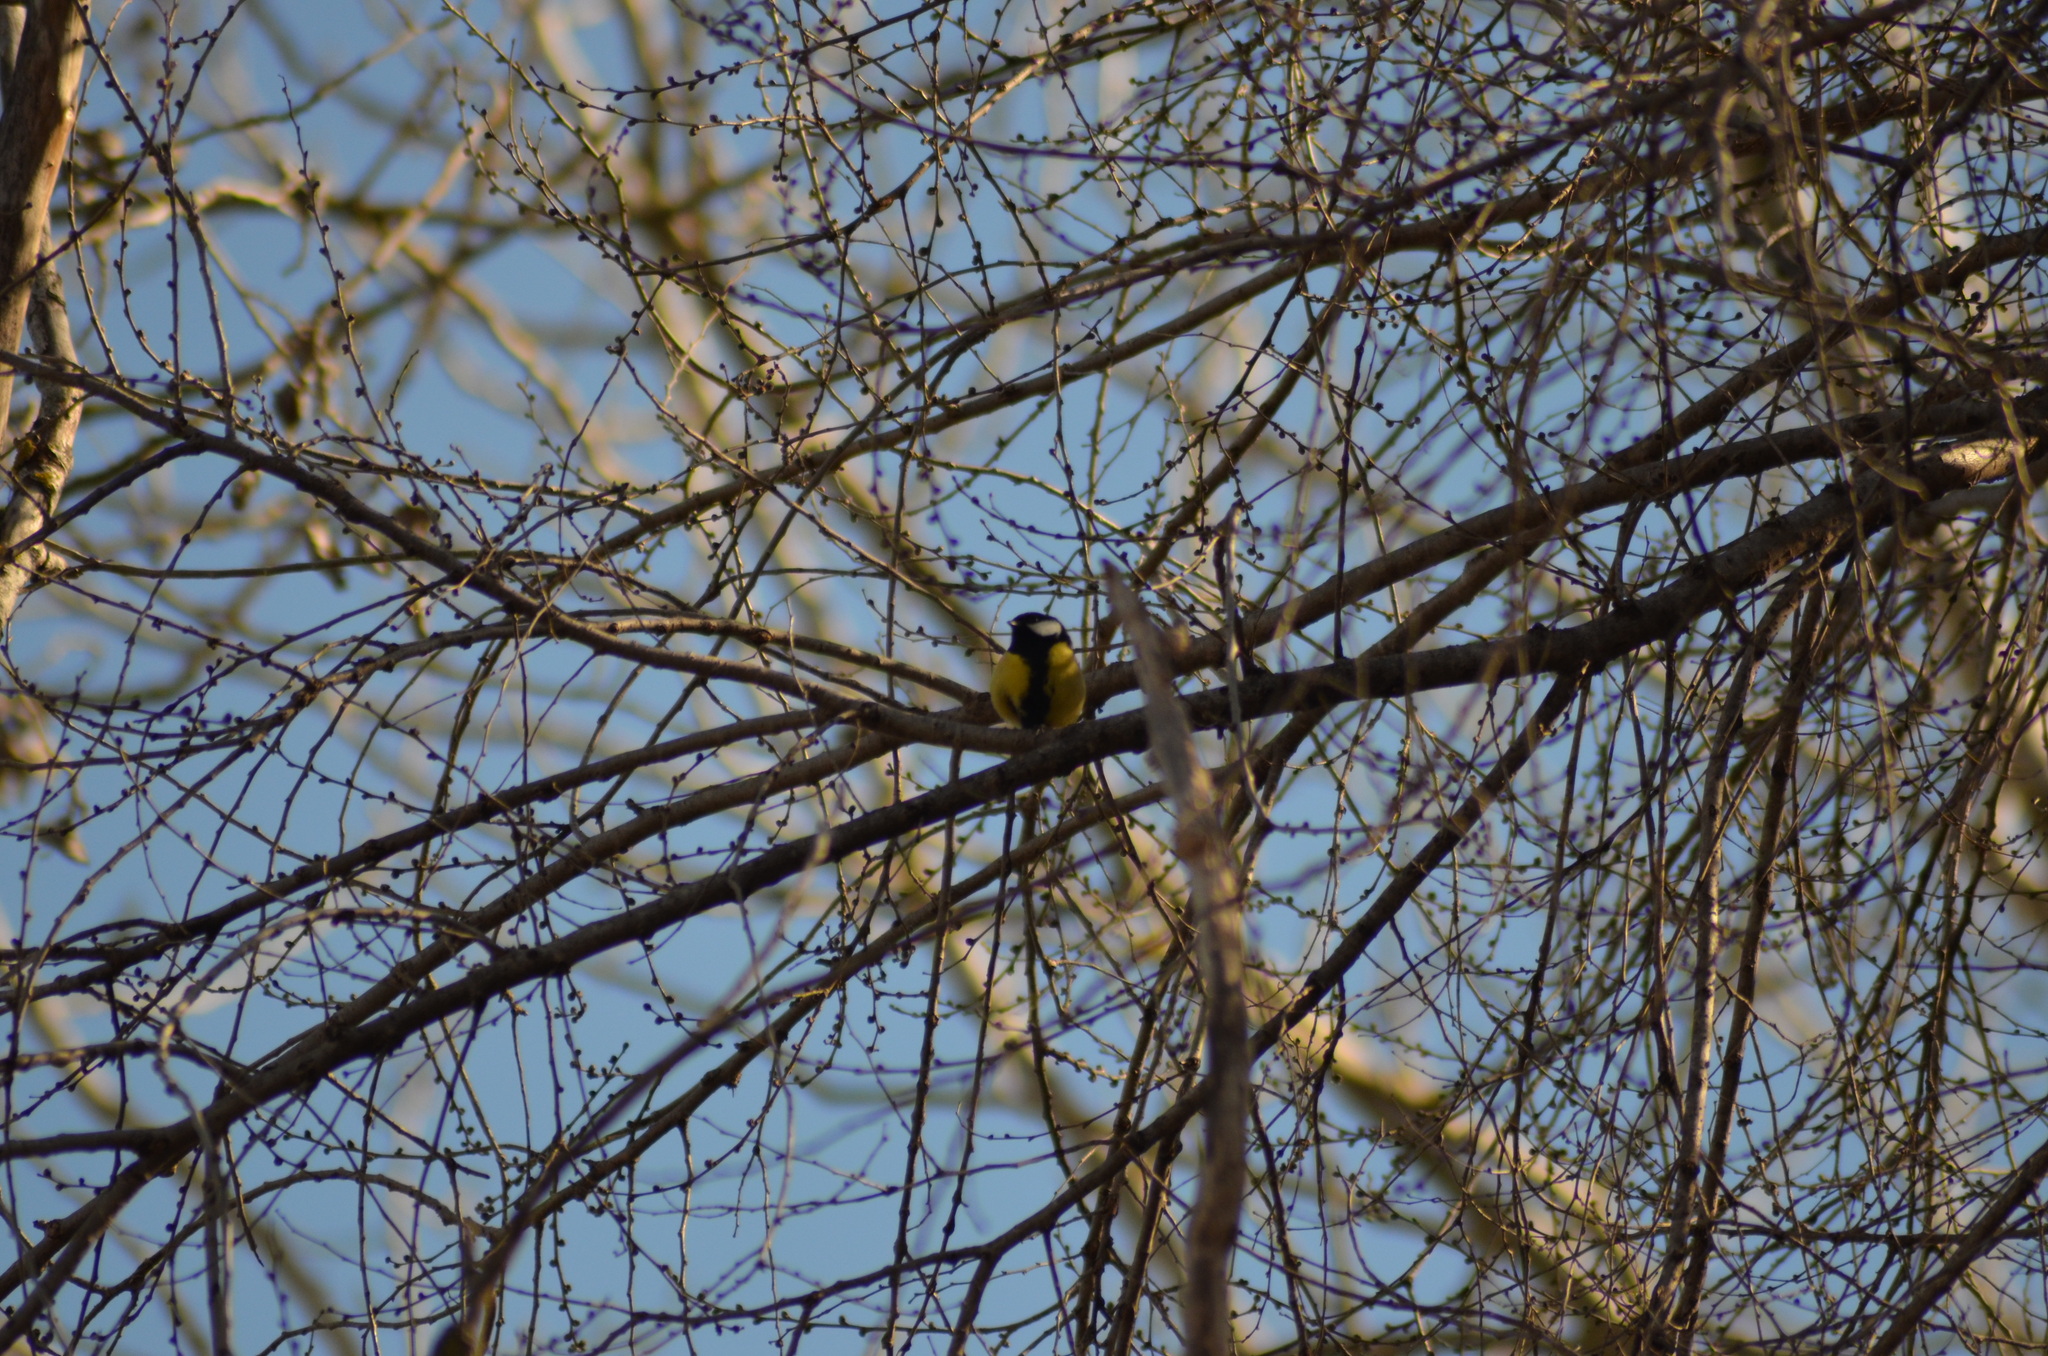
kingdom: Animalia
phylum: Chordata
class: Aves
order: Passeriformes
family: Paridae
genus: Parus
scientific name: Parus major
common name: Great tit
